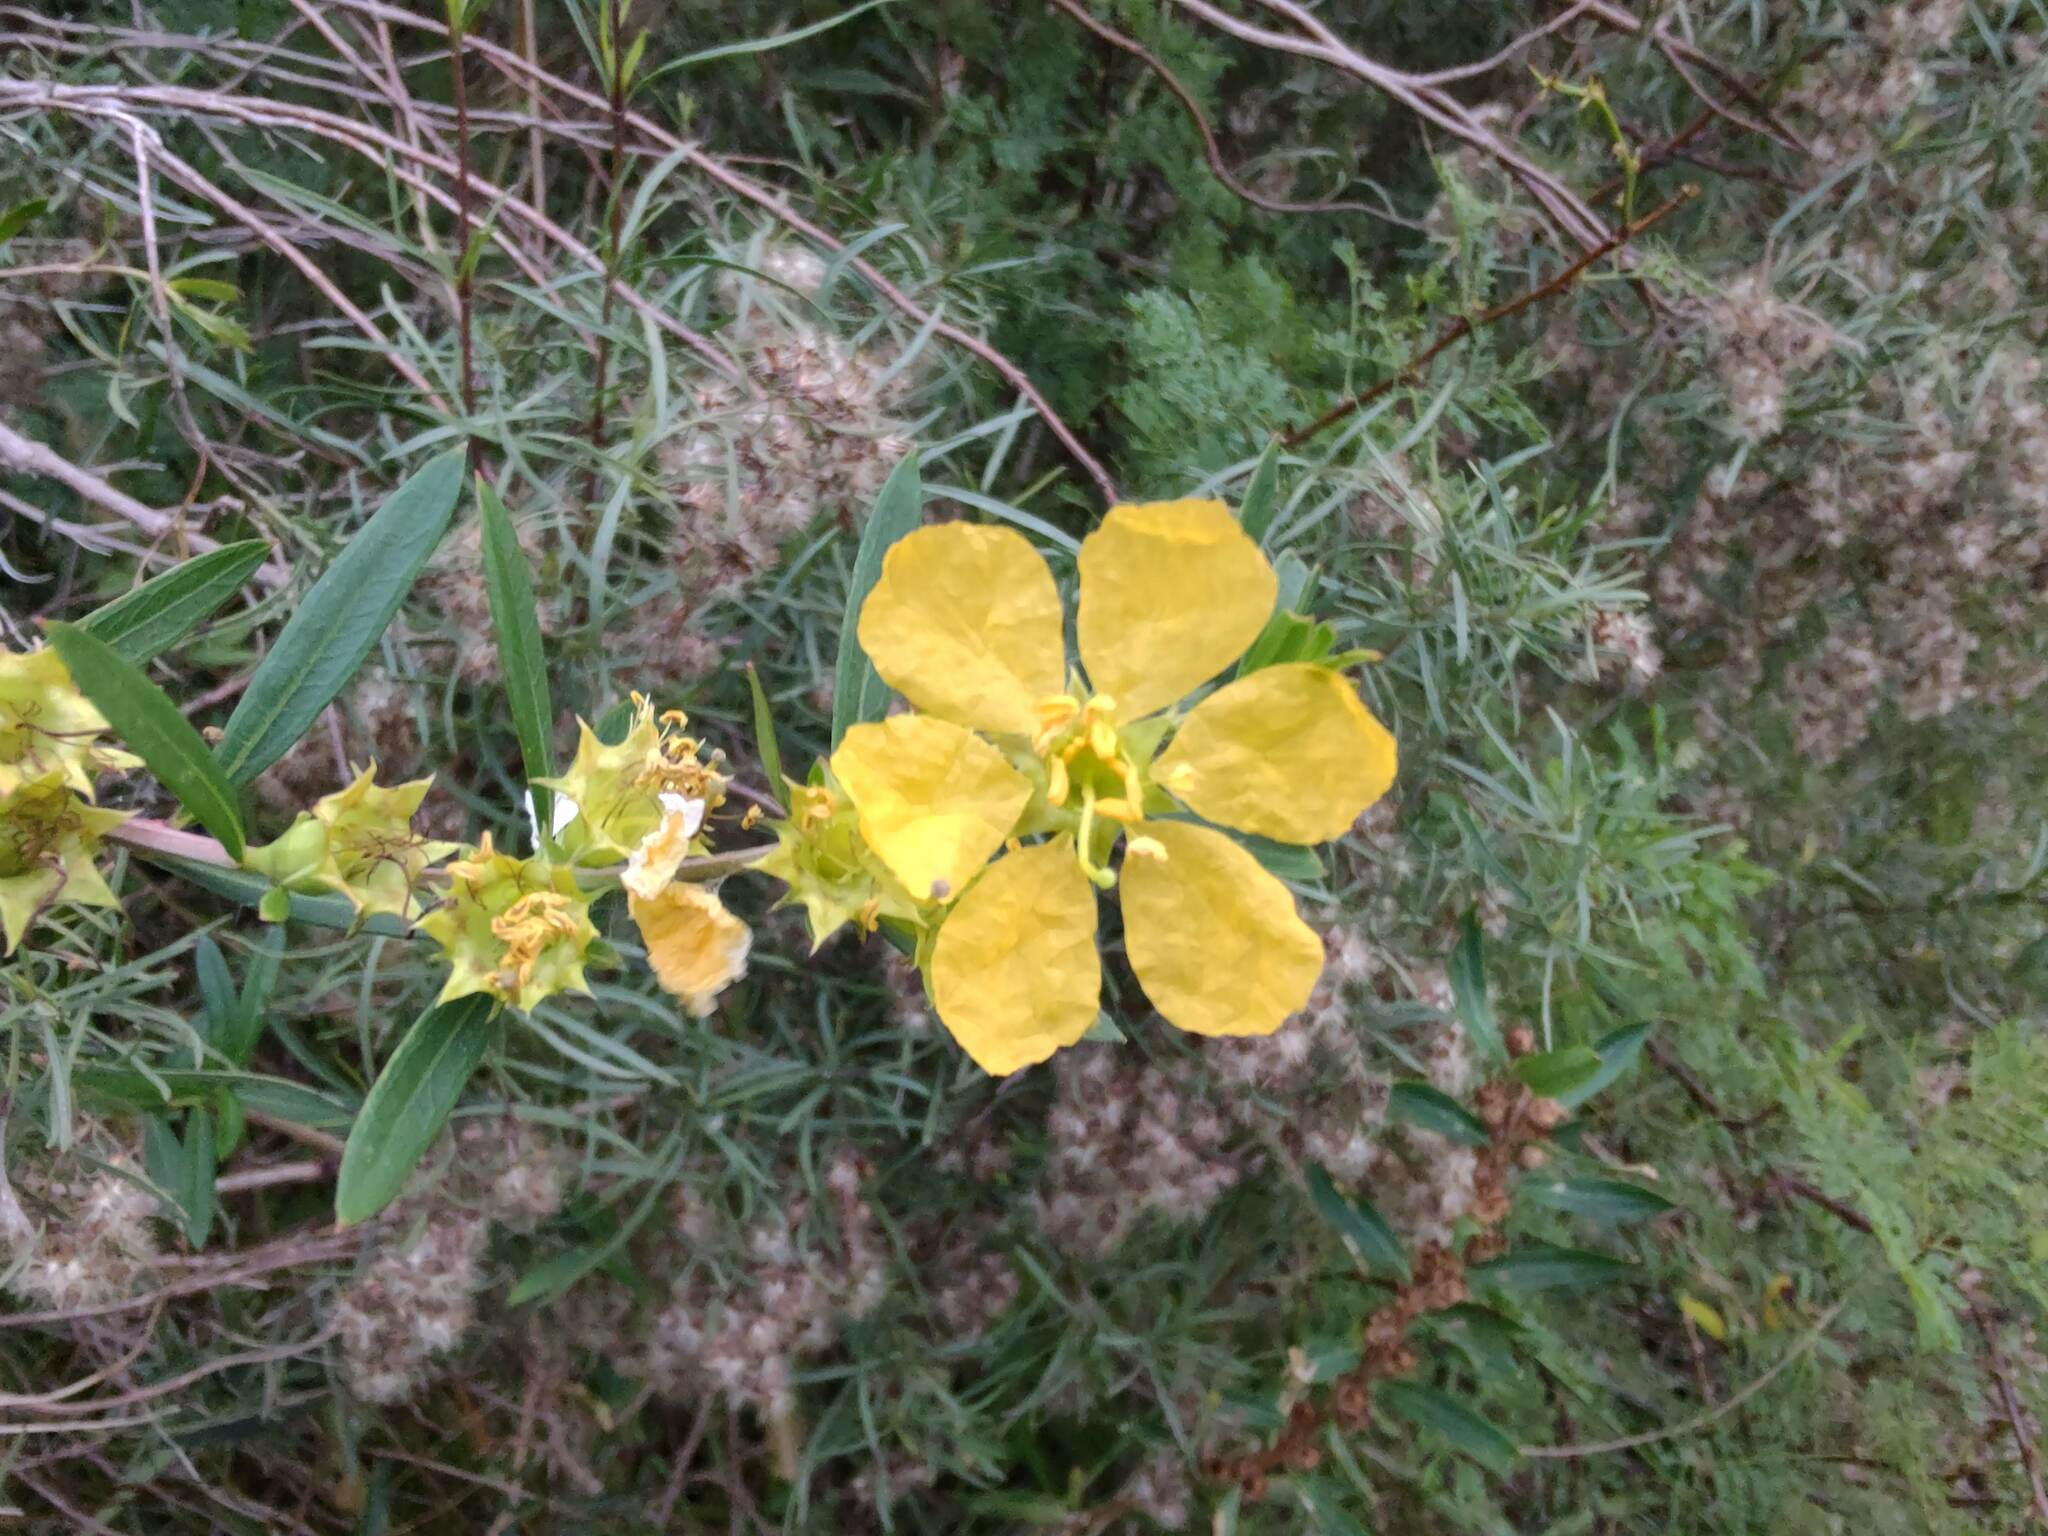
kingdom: Plantae
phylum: Tracheophyta
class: Magnoliopsida
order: Myrtales
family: Lythraceae
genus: Heimia
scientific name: Heimia salicifolia
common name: Willow-leaf heimia
